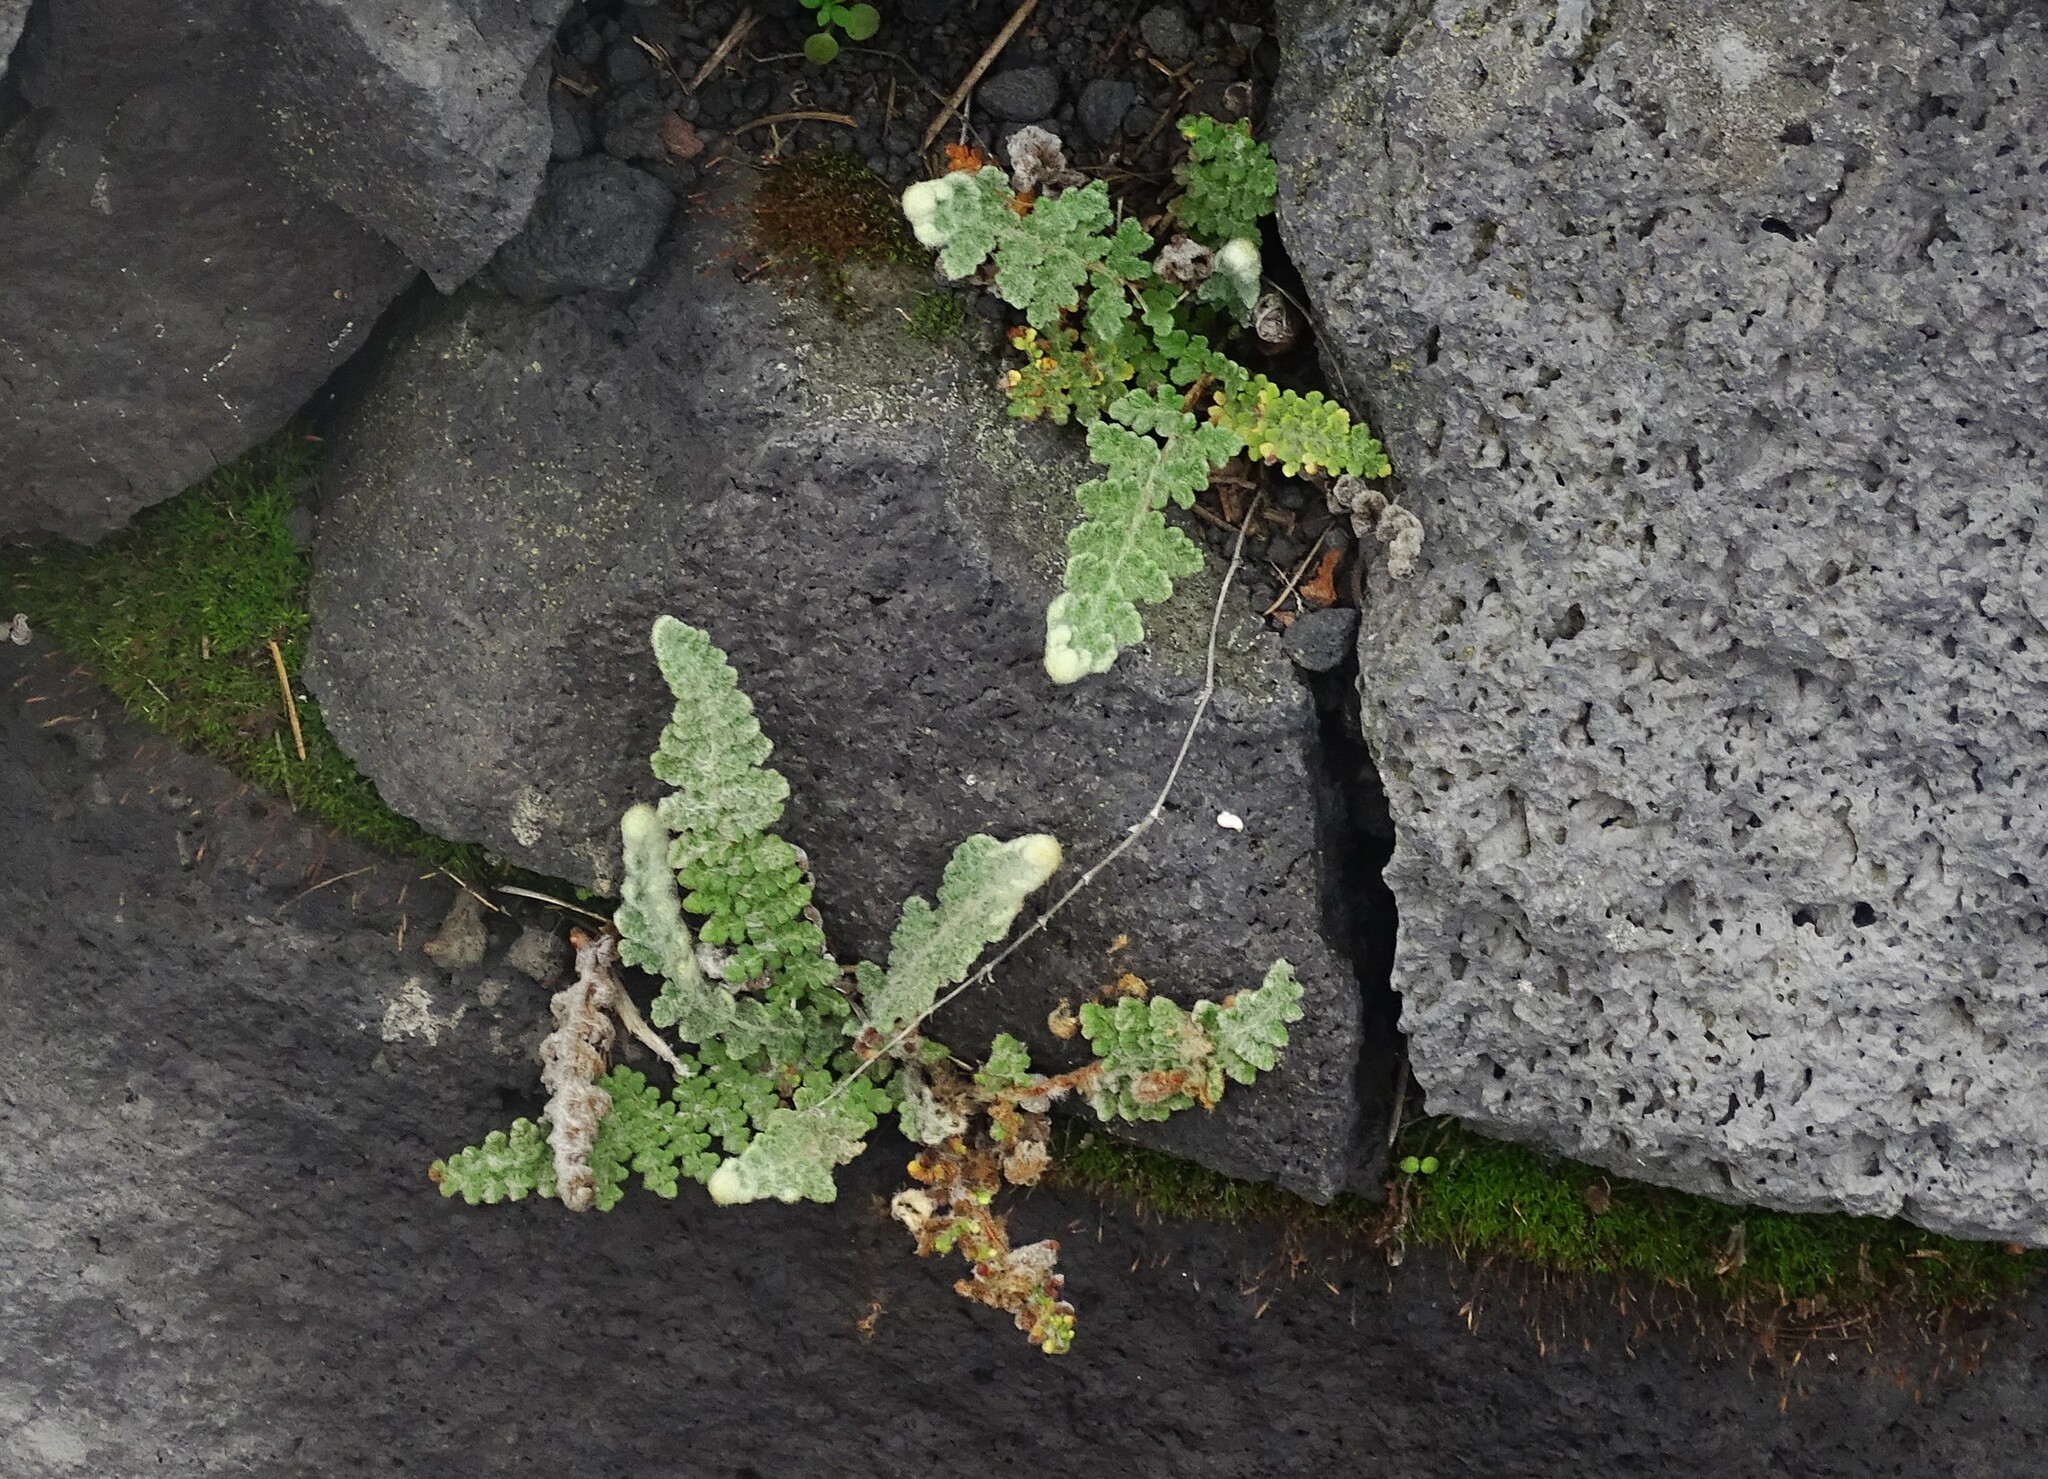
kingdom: Plantae
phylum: Tracheophyta
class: Polypodiopsida
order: Polypodiales
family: Pteridaceae
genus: Cosentinia
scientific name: Cosentinia vellea
